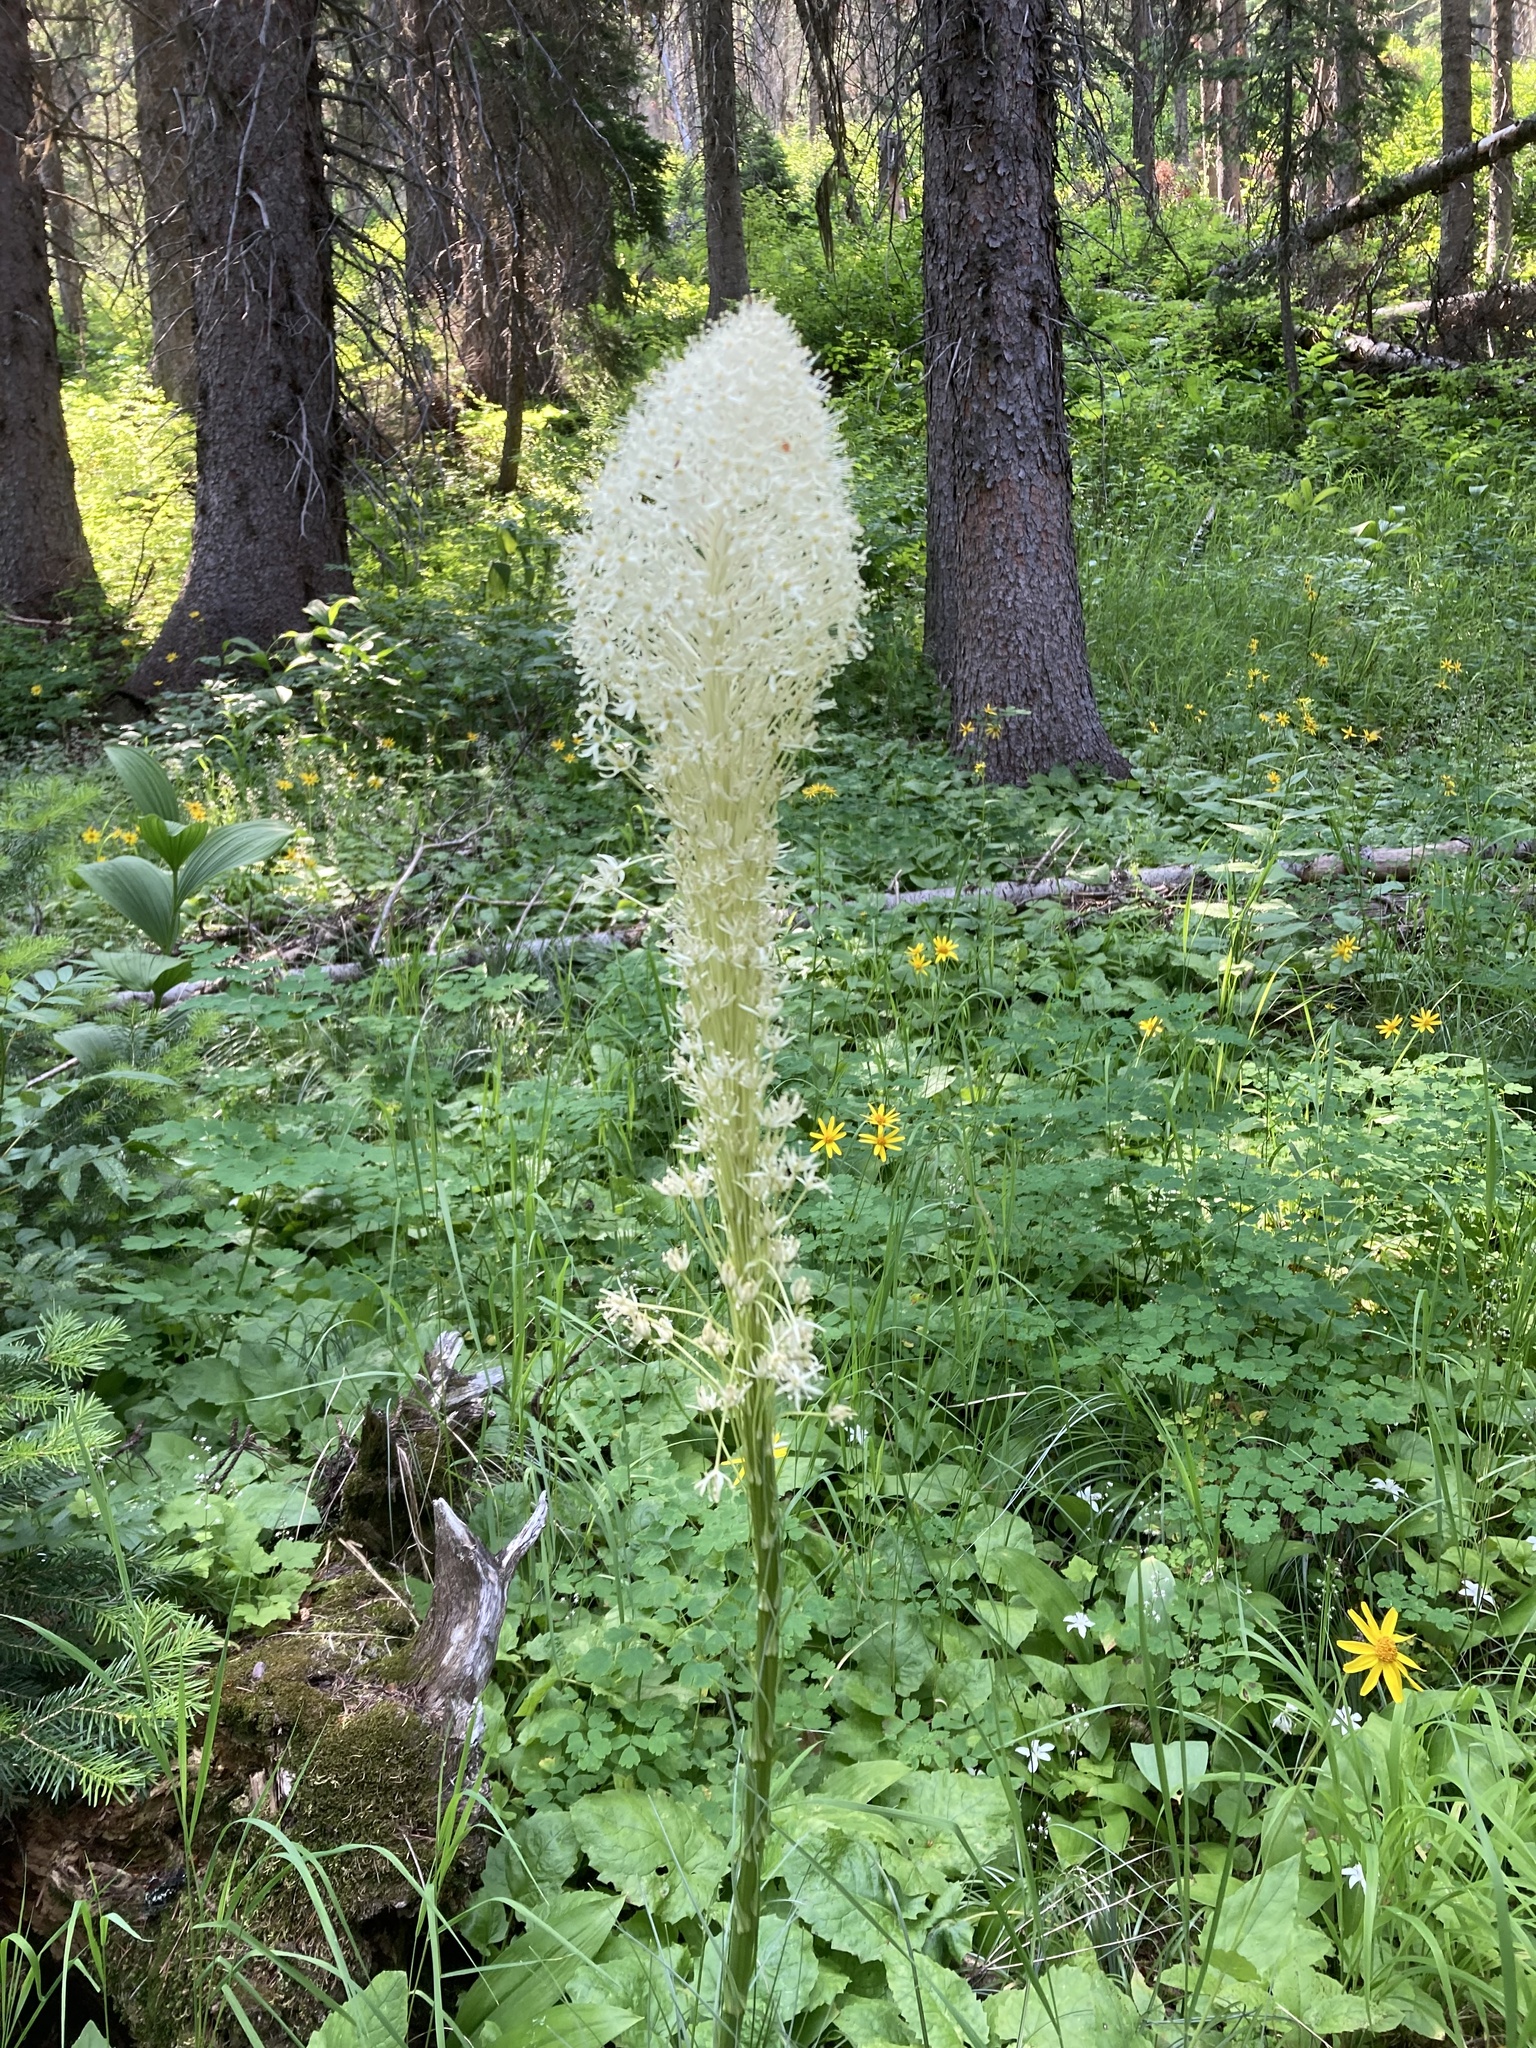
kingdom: Plantae
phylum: Tracheophyta
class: Liliopsida
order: Liliales
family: Melanthiaceae
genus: Xerophyllum
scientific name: Xerophyllum tenax
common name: Bear-grass
